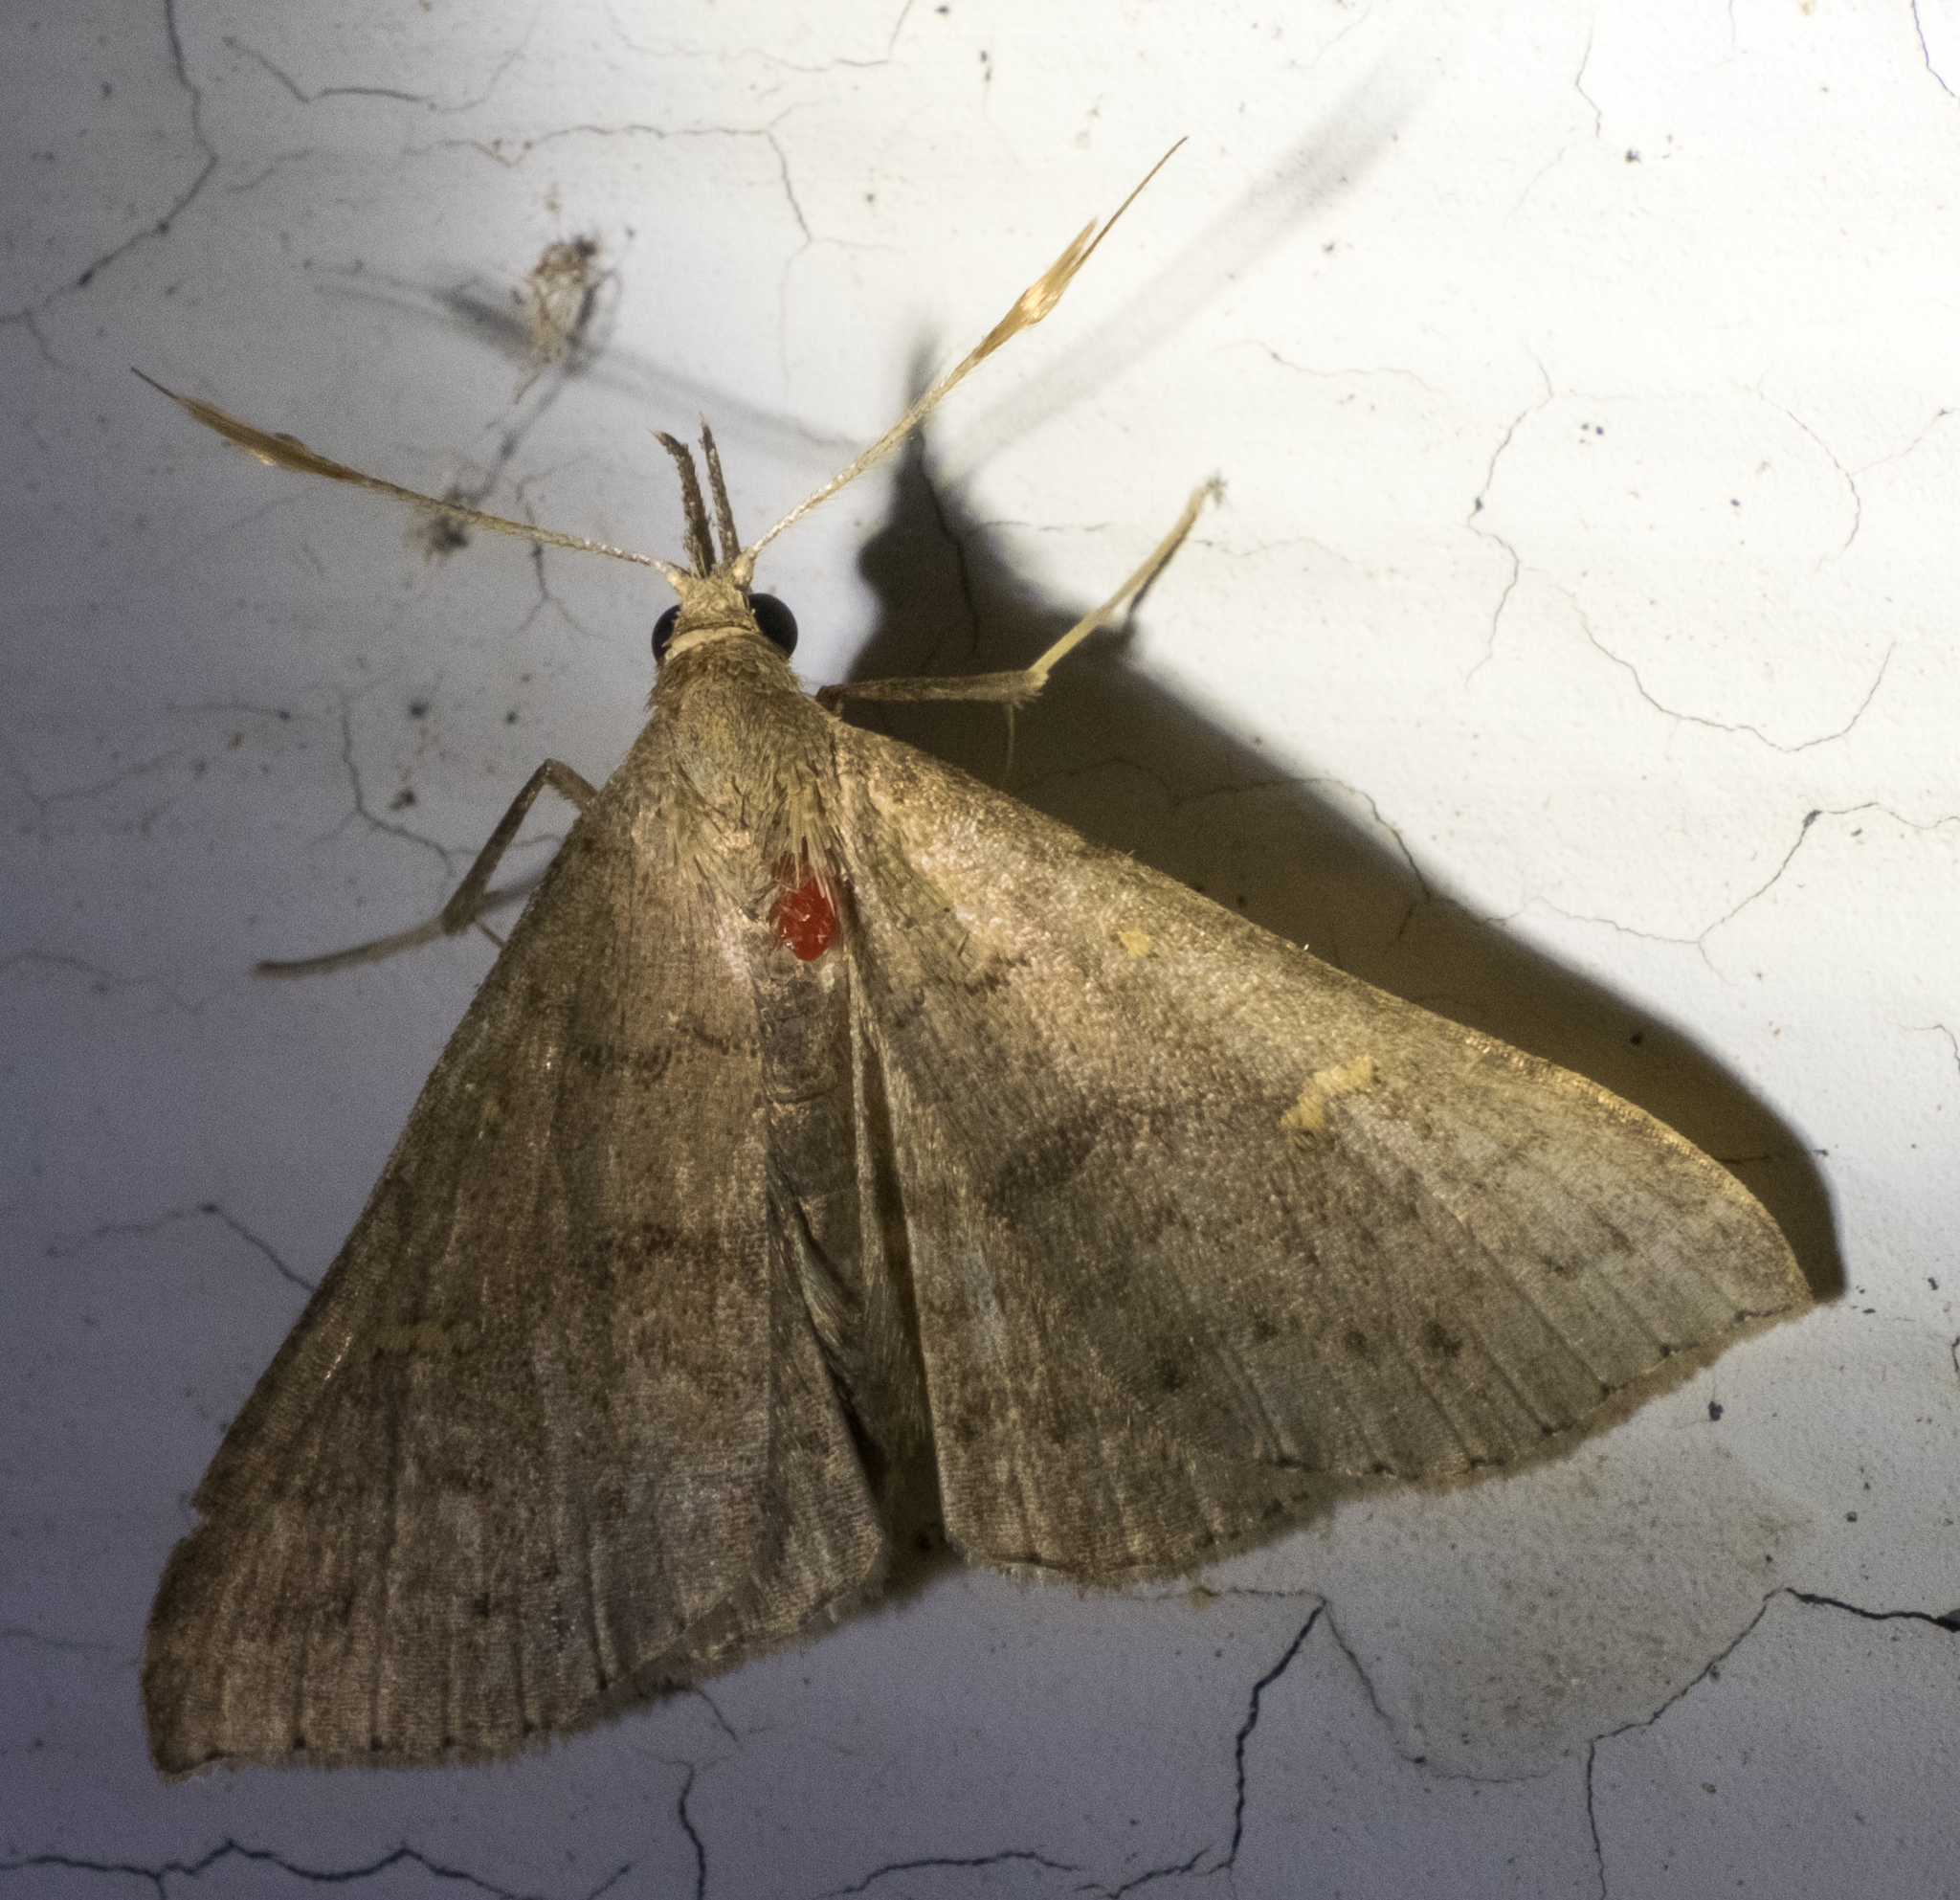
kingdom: Animalia
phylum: Arthropoda
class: Insecta
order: Lepidoptera
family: Erebidae
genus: Renia
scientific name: Renia adspergillus
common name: Speckled renia moth
